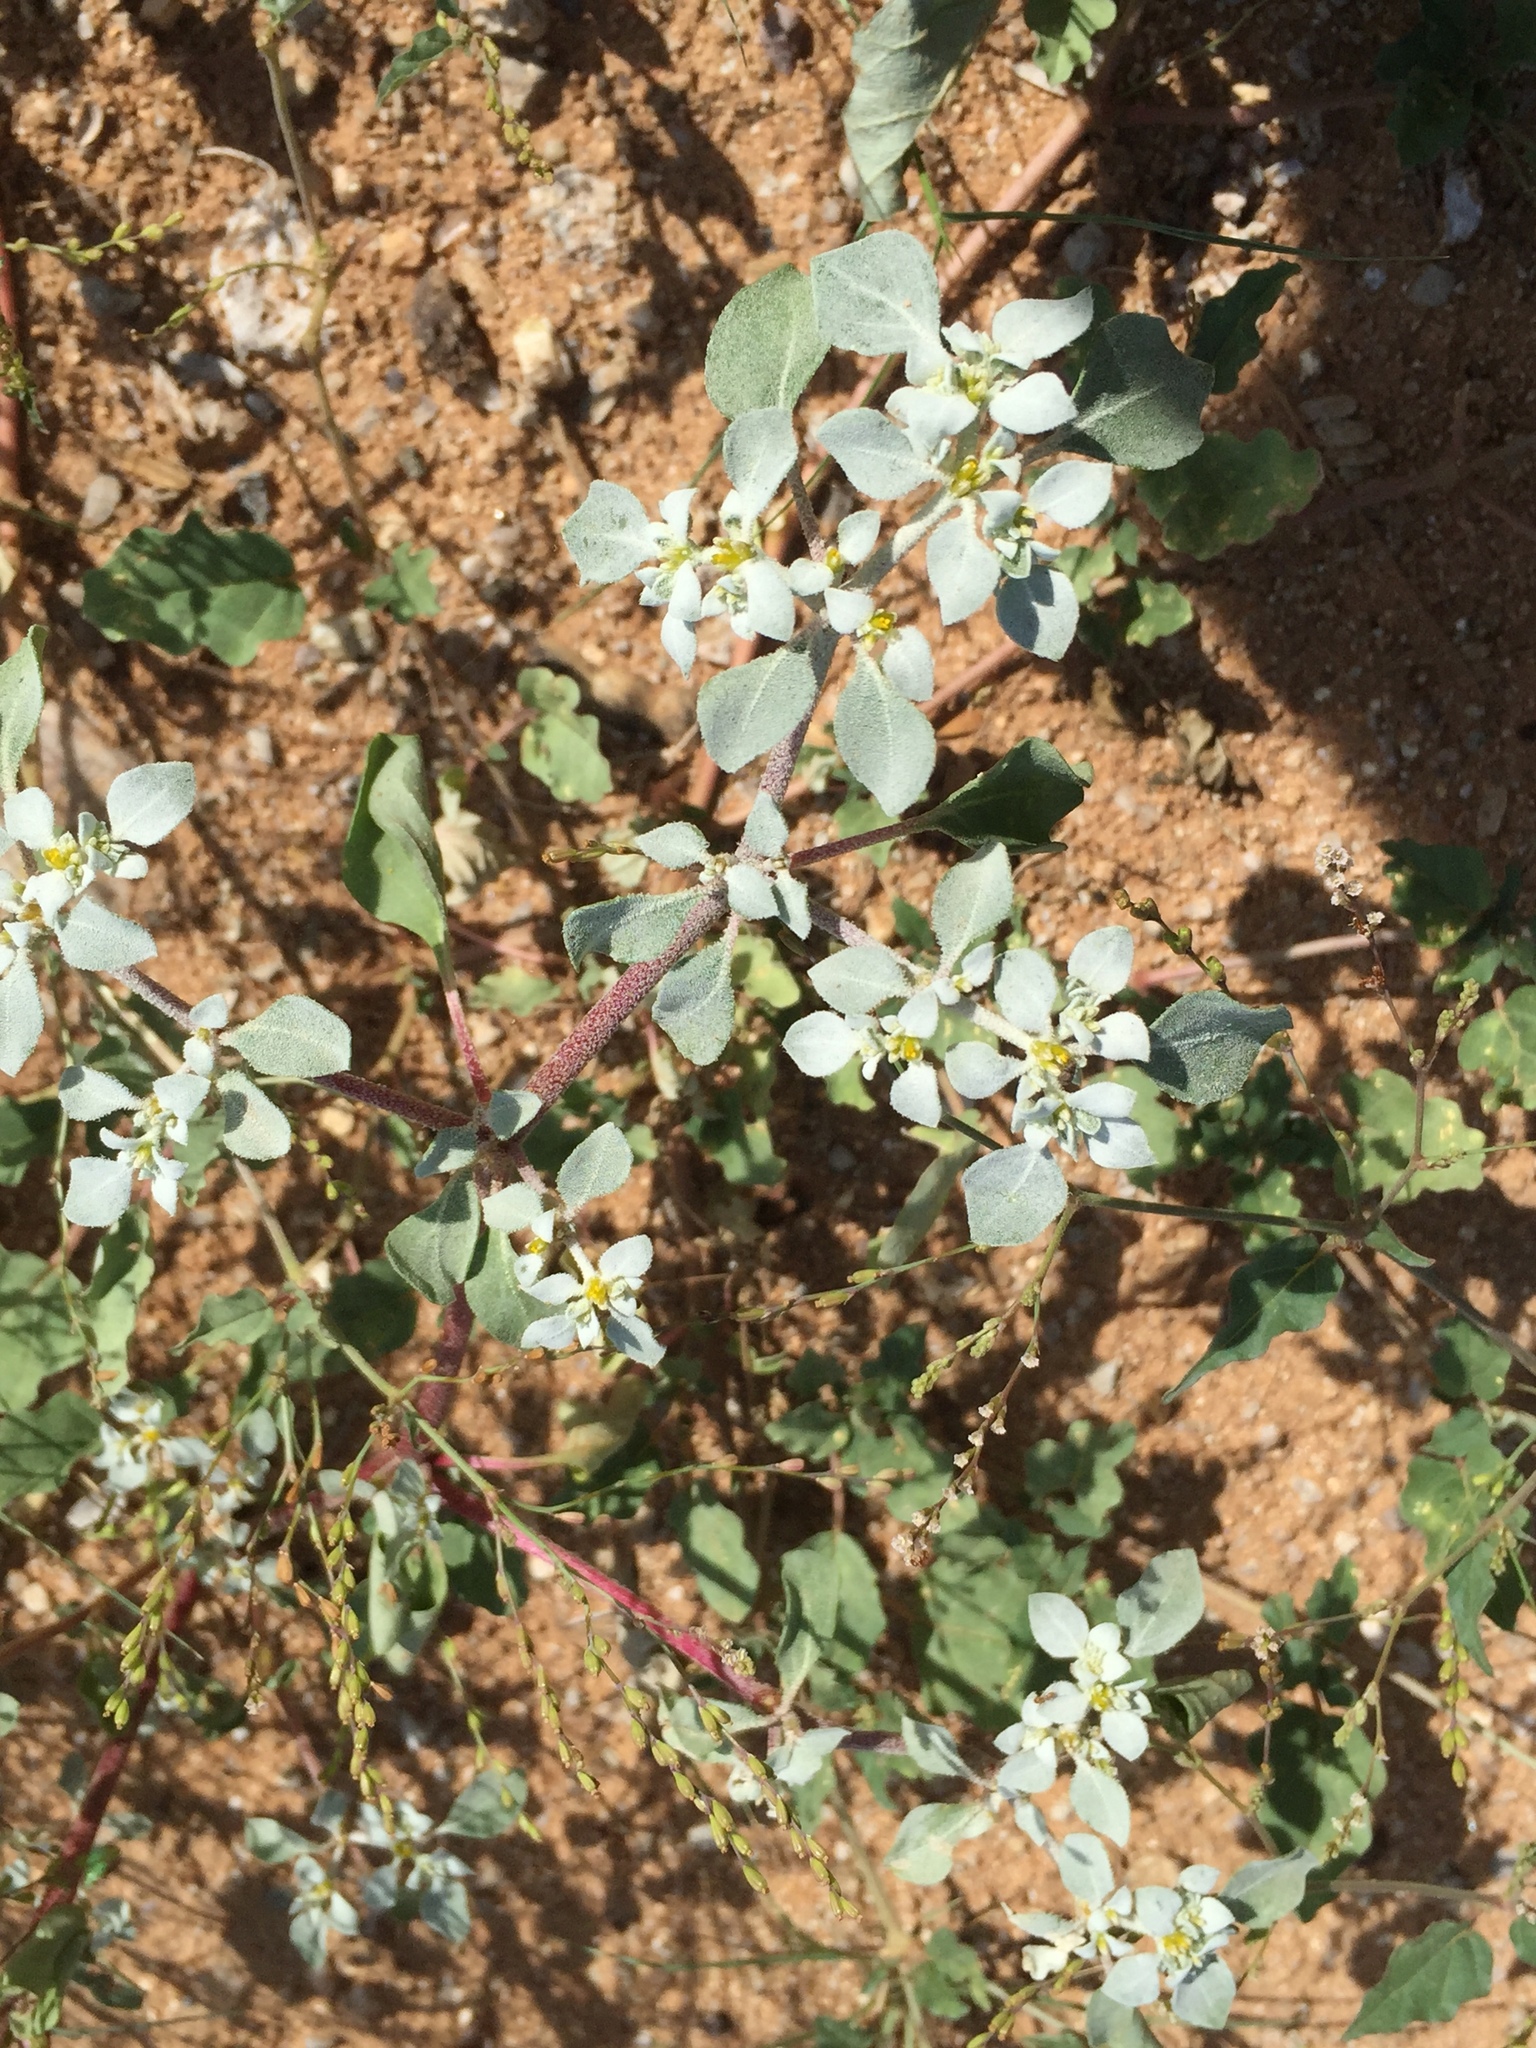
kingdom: Plantae
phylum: Tracheophyta
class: Magnoliopsida
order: Caryophyllales
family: Amaranthaceae
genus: Tidestromia
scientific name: Tidestromia lanuginosa
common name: Woolly tidestromia
